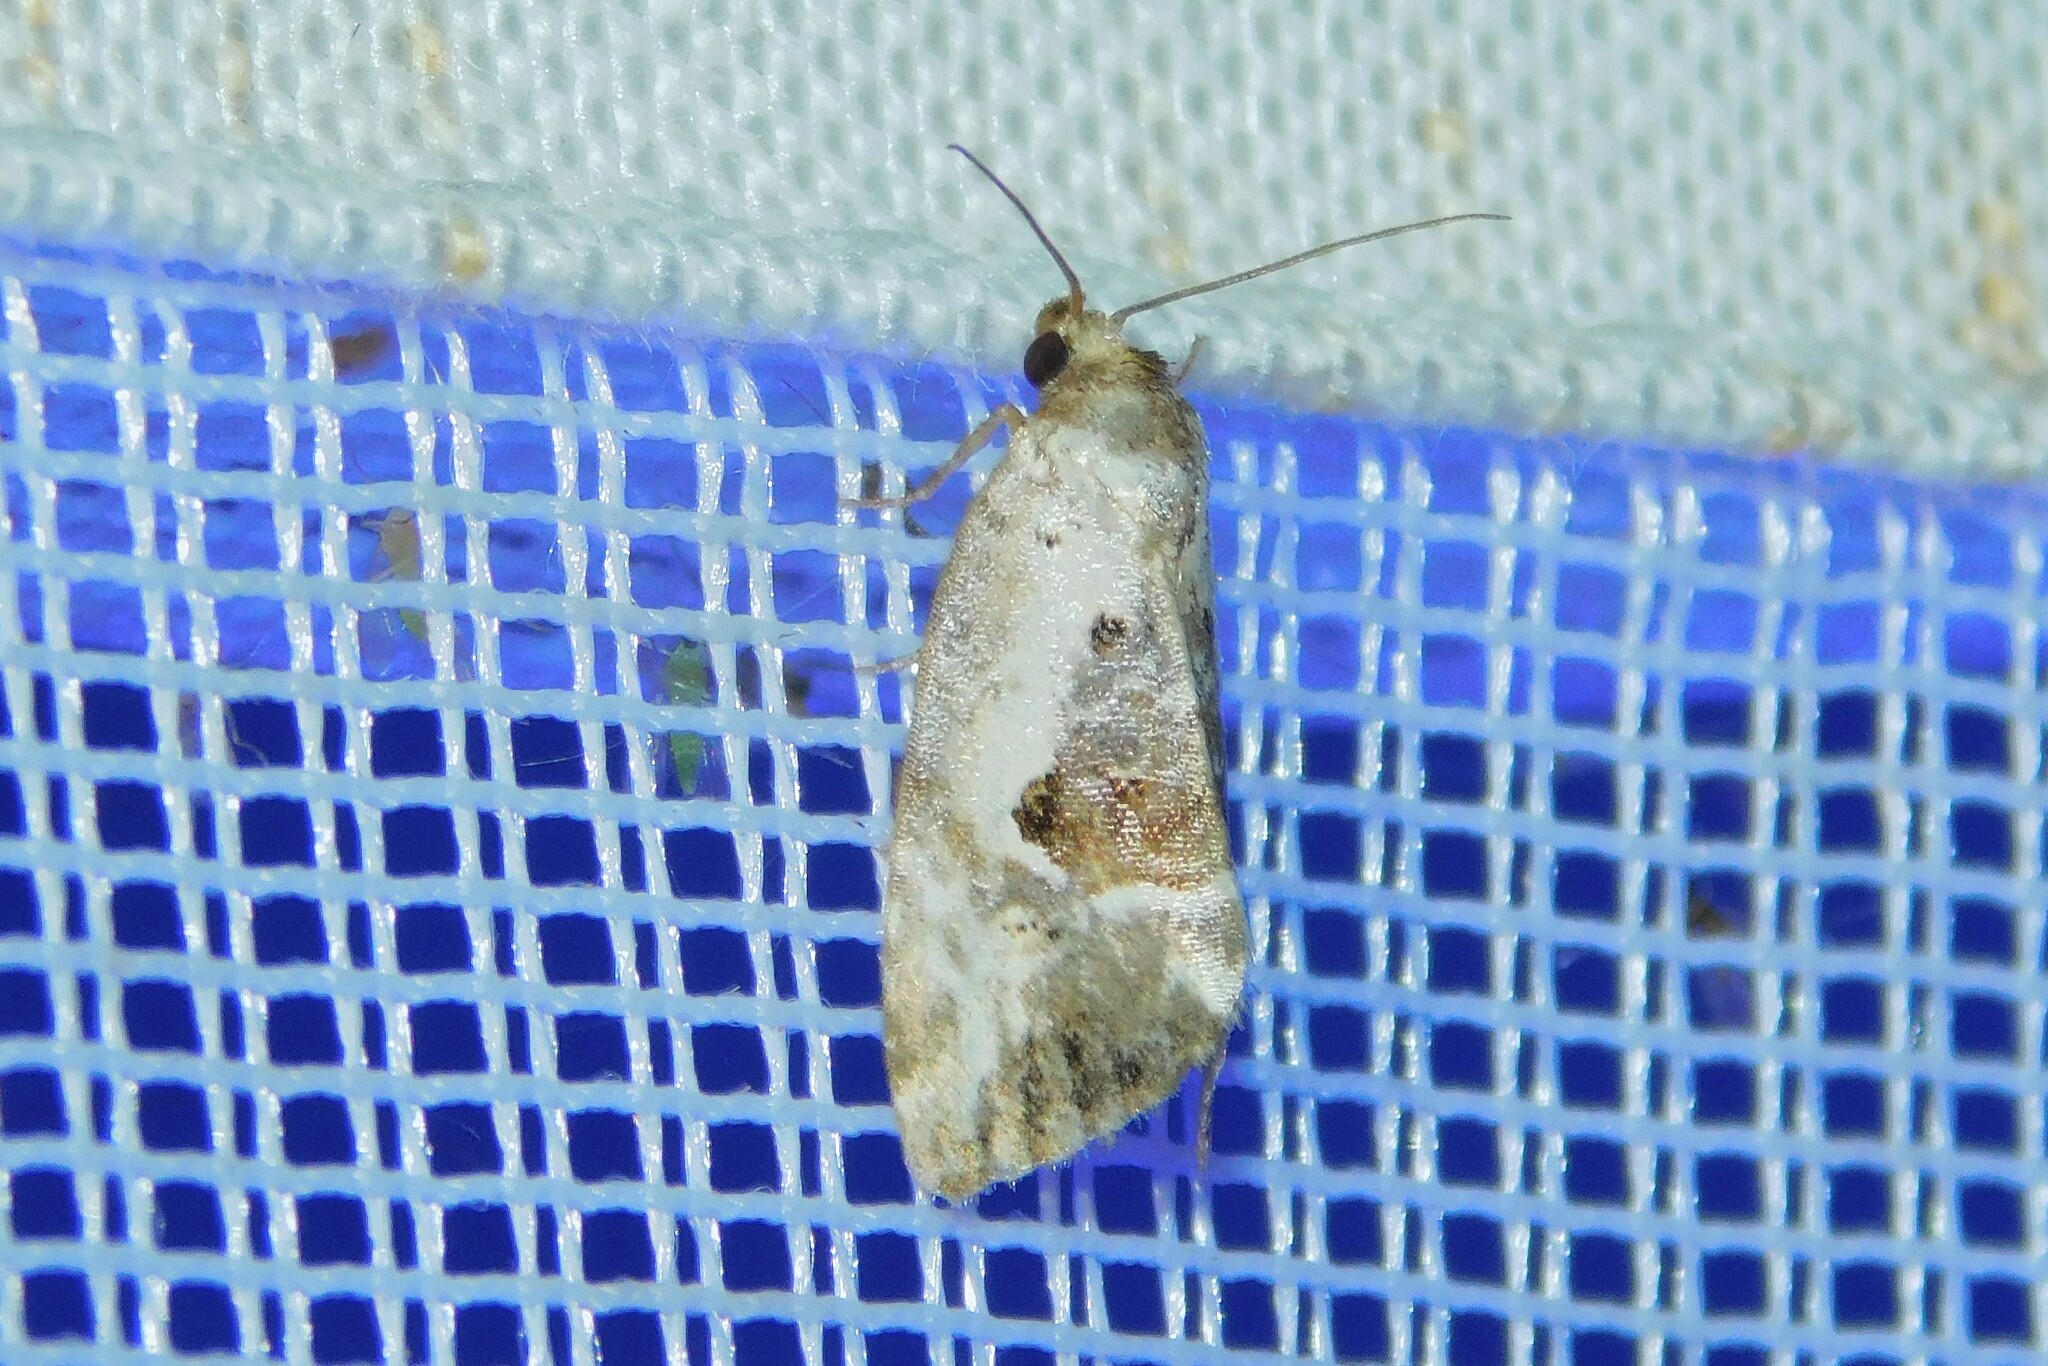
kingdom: Animalia
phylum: Arthropoda
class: Insecta
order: Lepidoptera
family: Noctuidae
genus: Elaphria
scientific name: Elaphria venustula
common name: Rosy marbled
